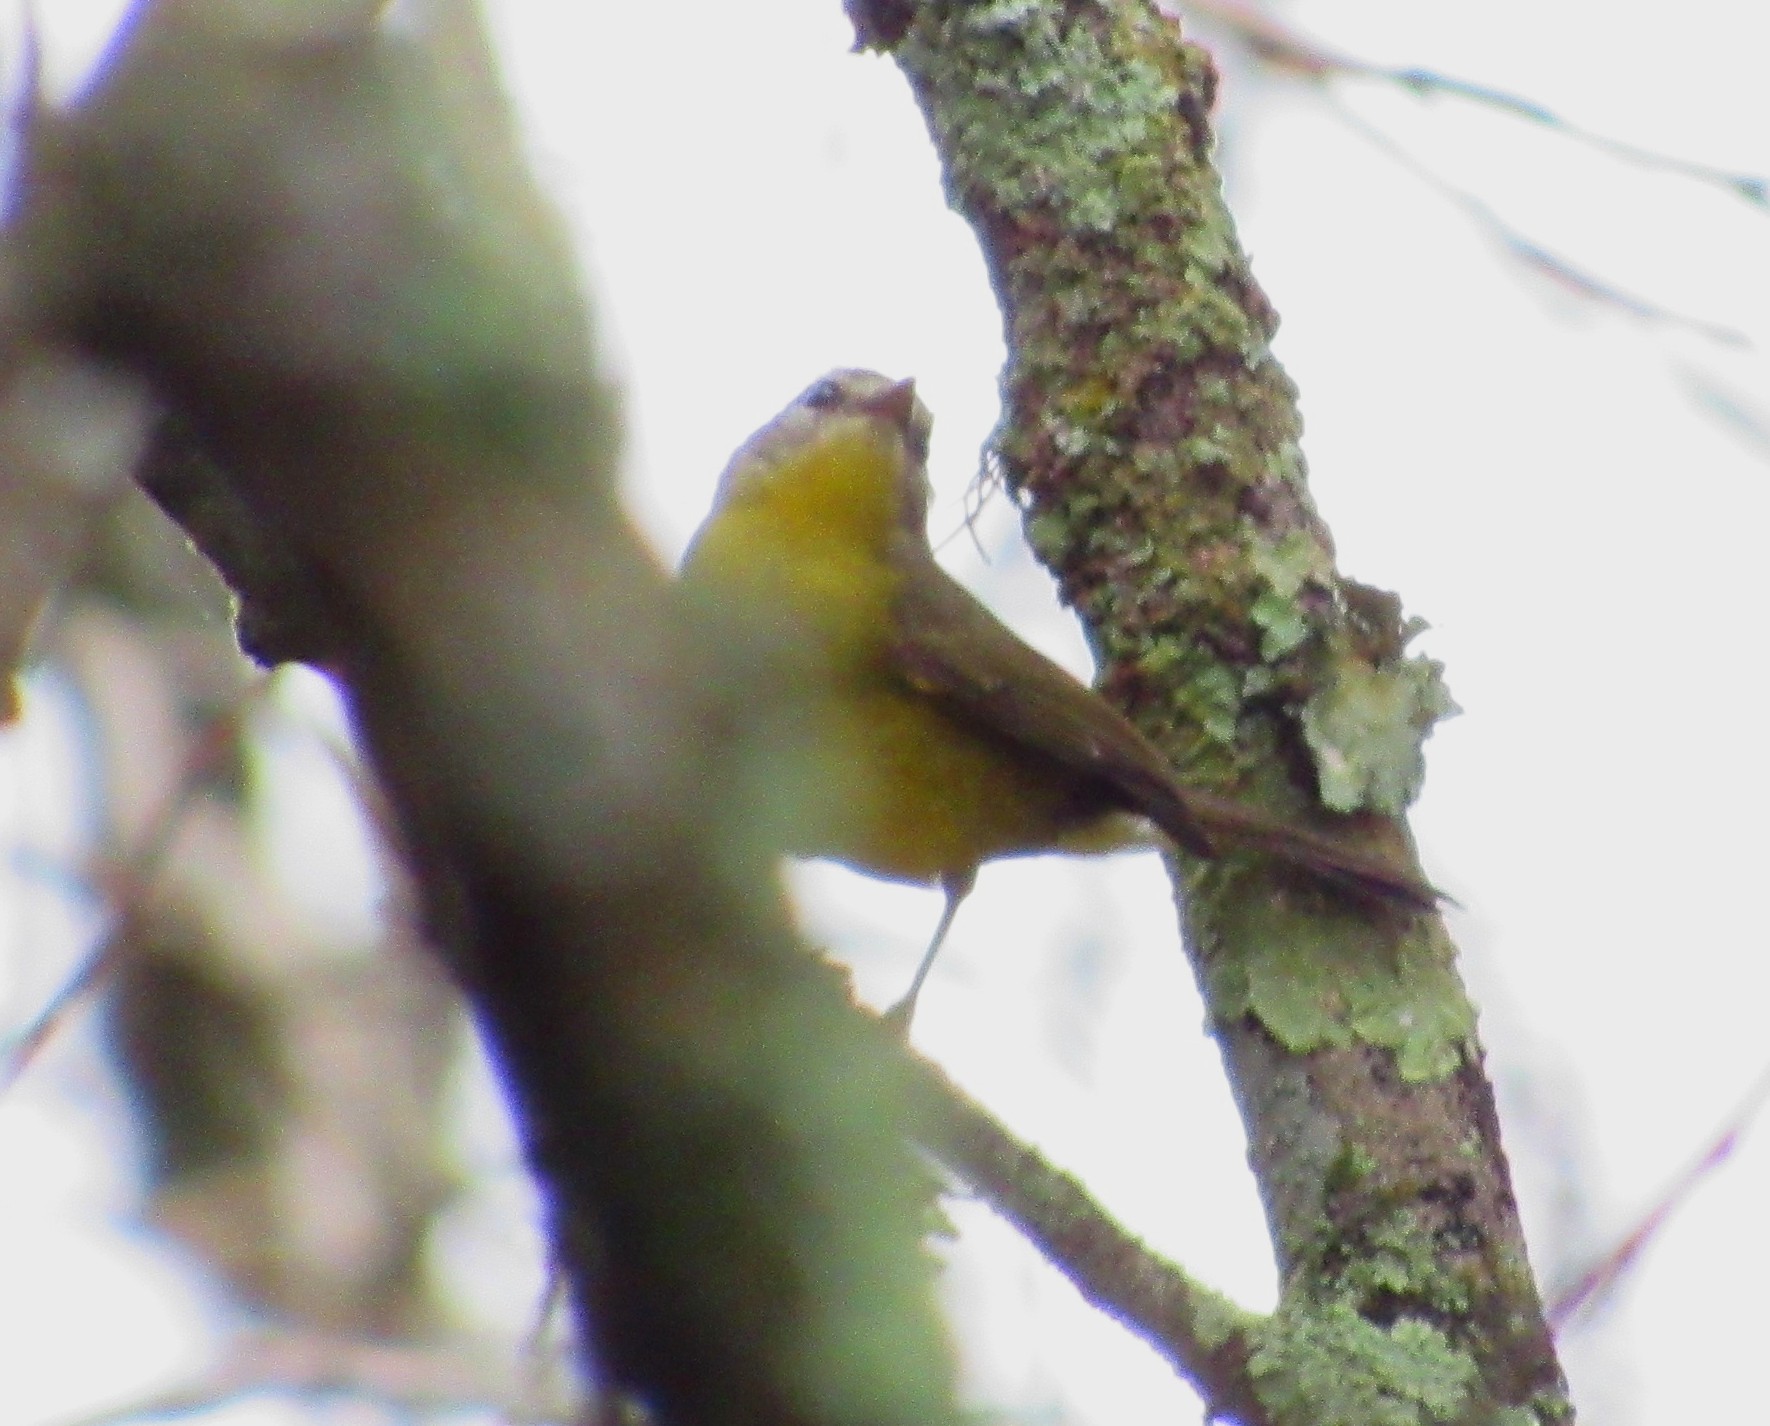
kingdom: Animalia
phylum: Chordata
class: Aves
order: Passeriformes
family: Parulidae
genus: Basileuterus
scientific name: Basileuterus culicivorus
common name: Golden-crowned warbler
